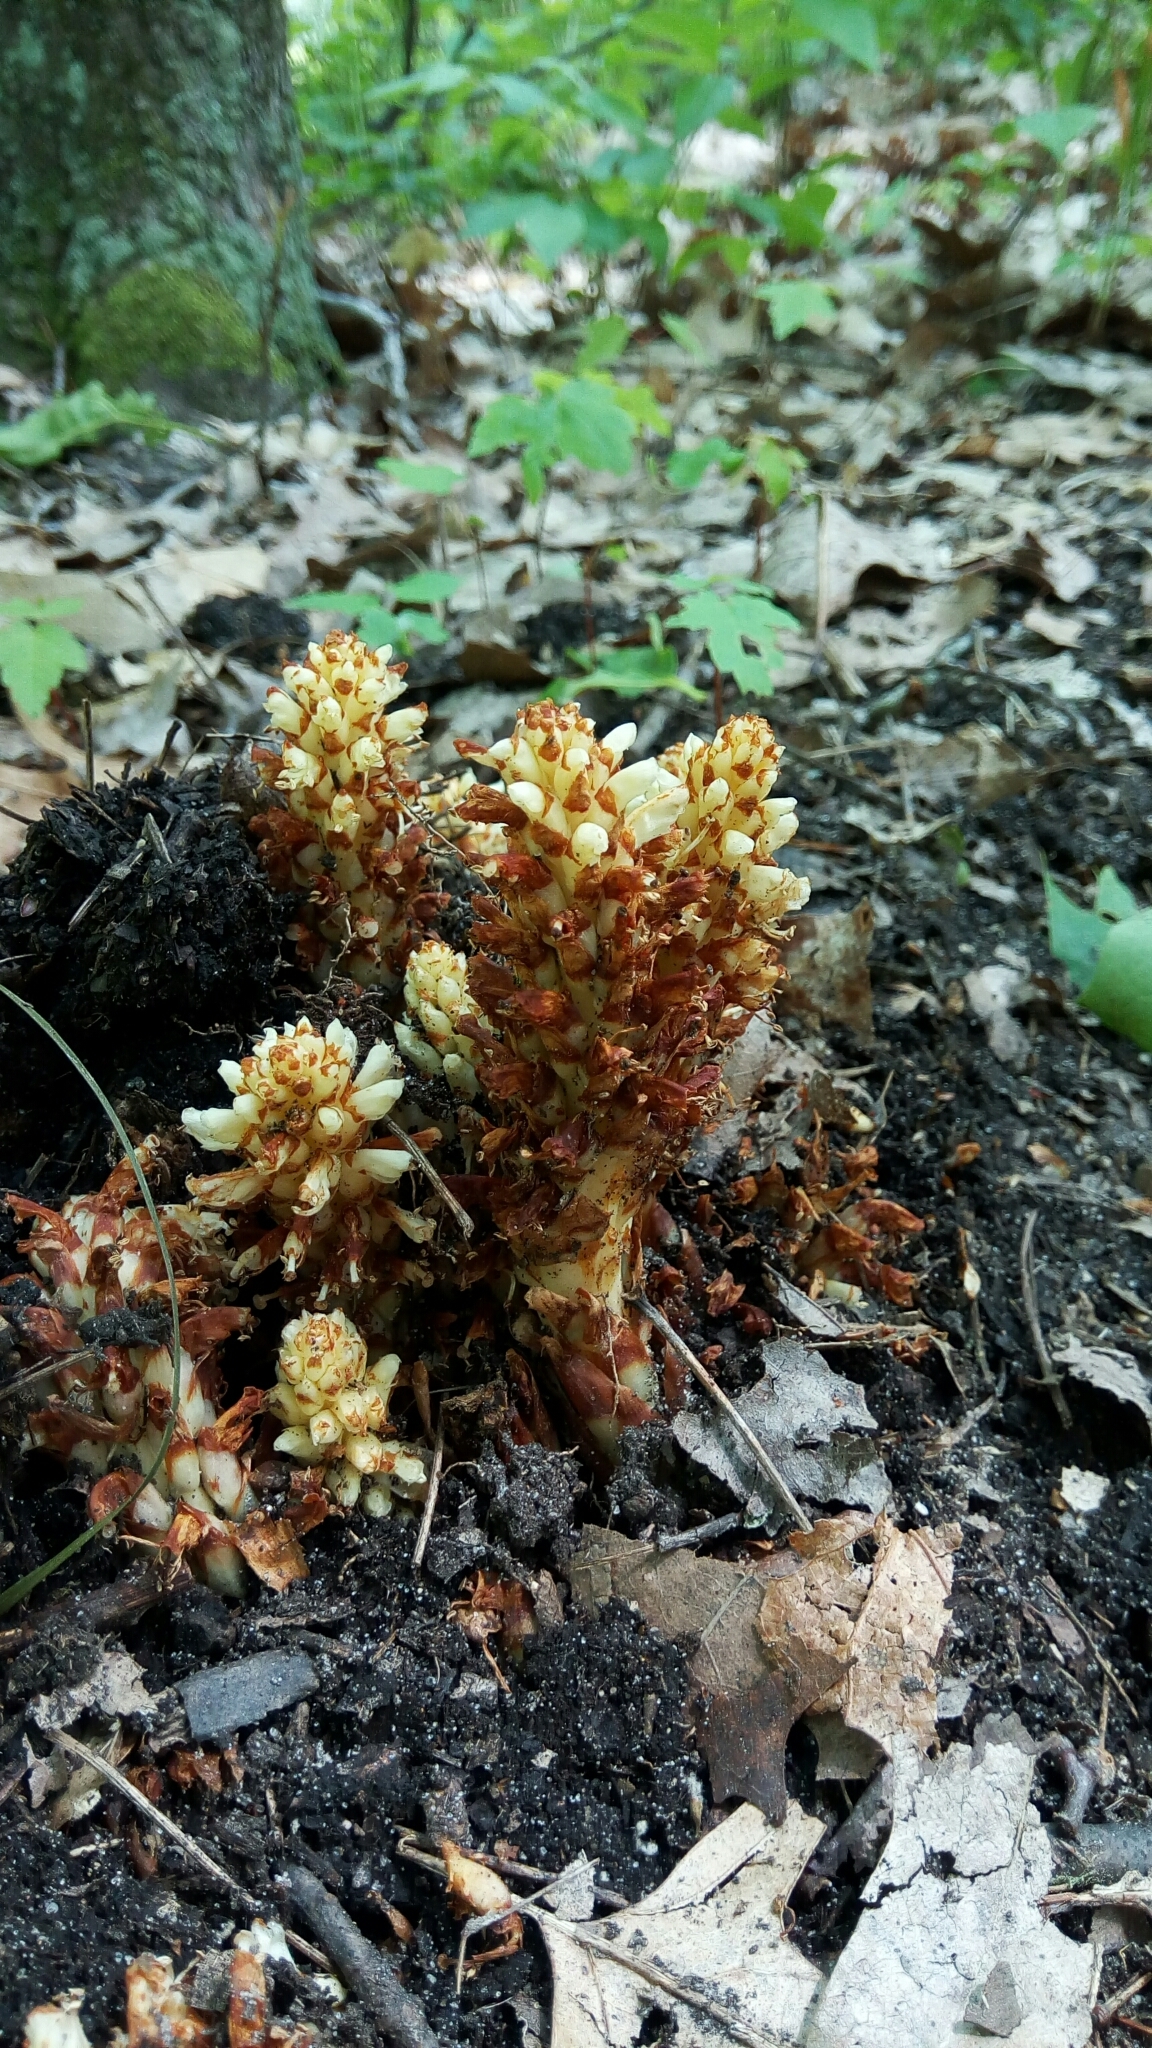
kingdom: Plantae
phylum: Tracheophyta
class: Magnoliopsida
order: Lamiales
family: Orobanchaceae
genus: Conopholis
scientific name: Conopholis americana
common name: American cancer-root
